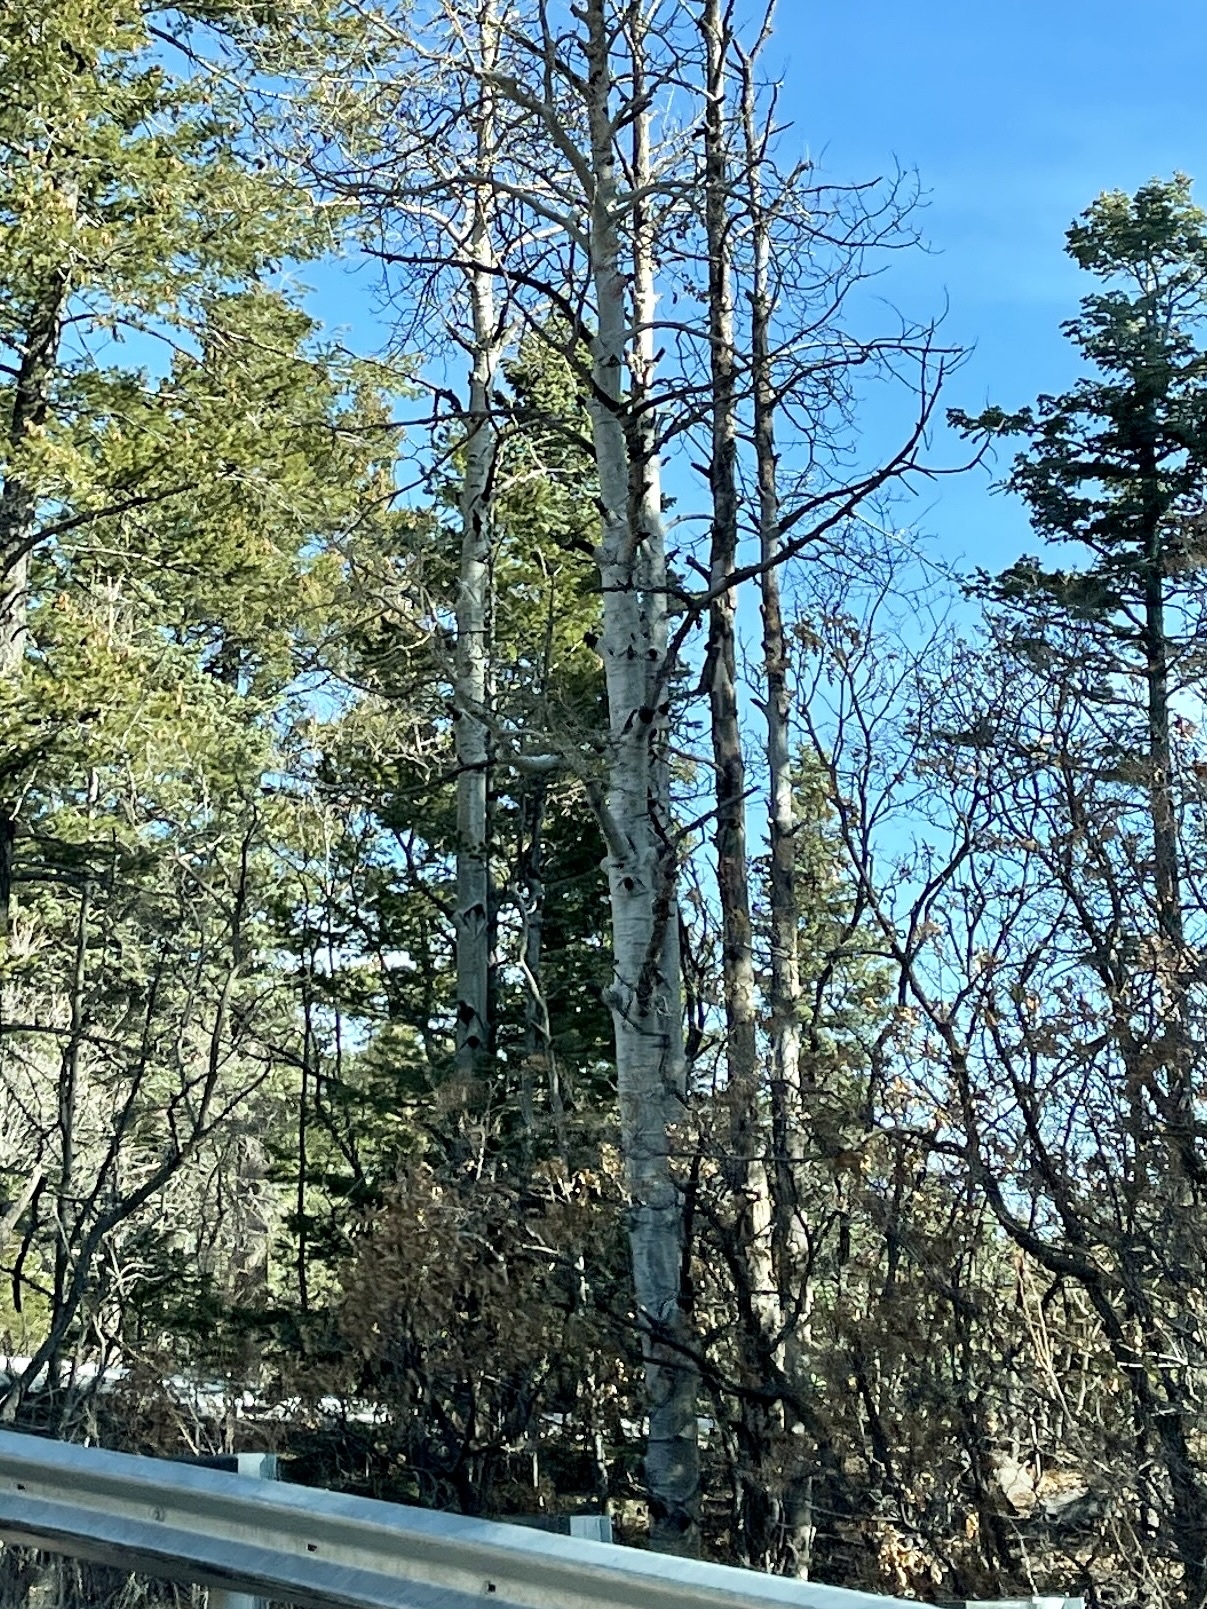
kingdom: Plantae
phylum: Tracheophyta
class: Magnoliopsida
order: Malpighiales
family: Salicaceae
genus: Populus
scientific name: Populus tremuloides
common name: Quaking aspen
